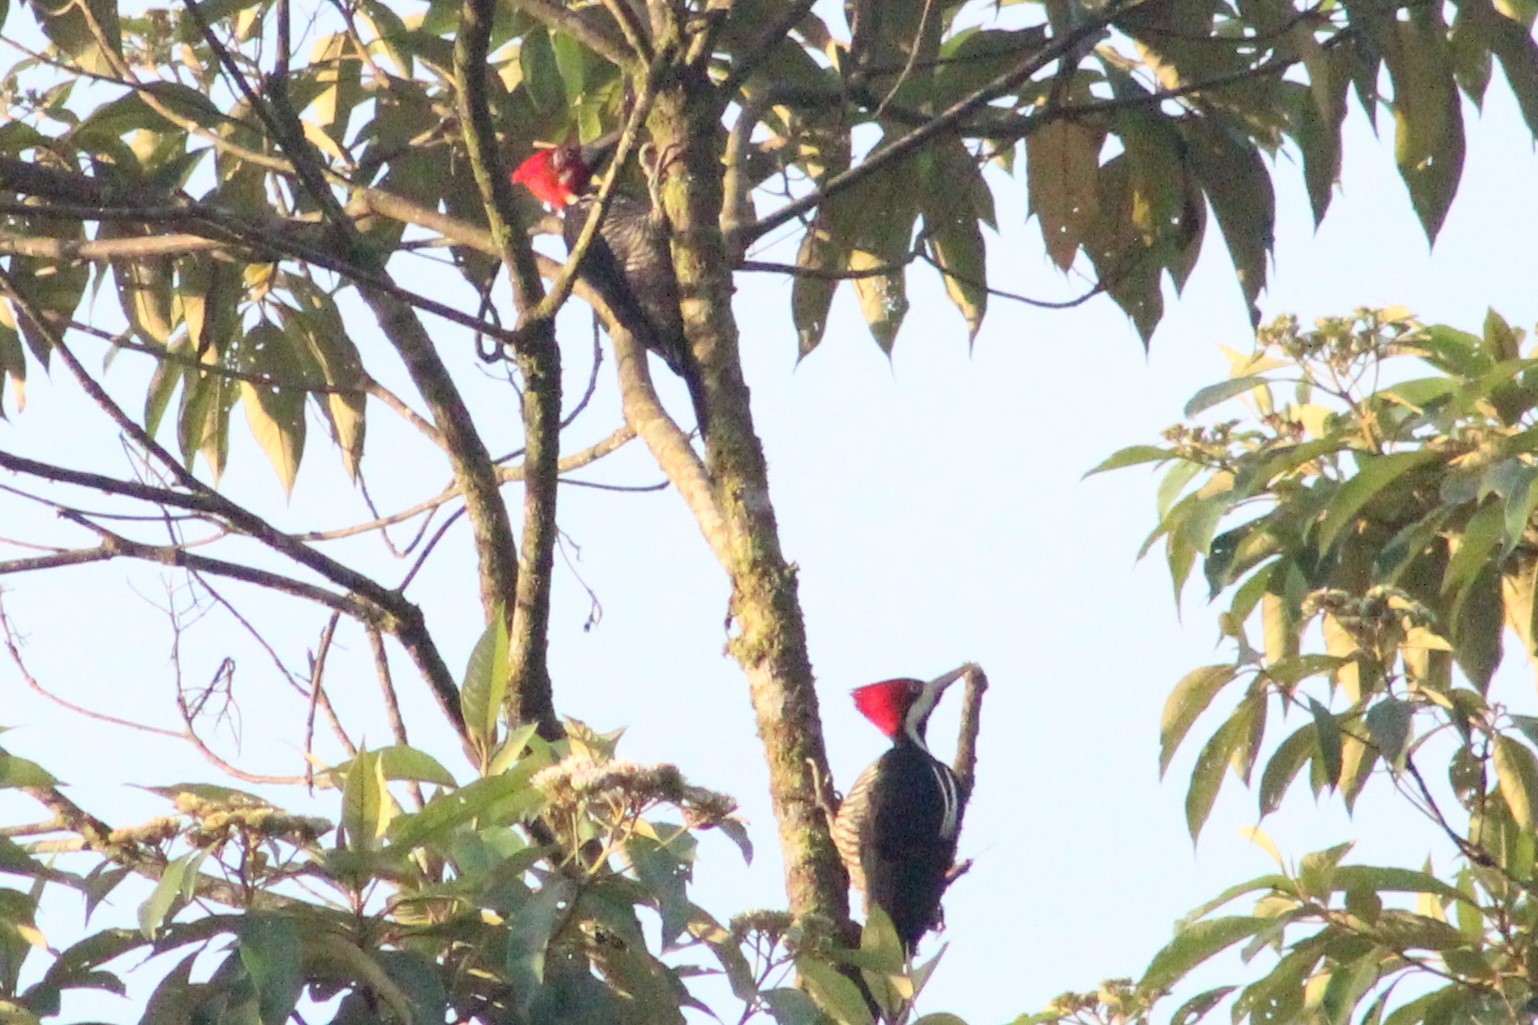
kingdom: Animalia
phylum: Chordata
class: Aves
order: Piciformes
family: Picidae
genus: Campephilus
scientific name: Campephilus melanoleucos
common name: Crimson-crested woodpecker
